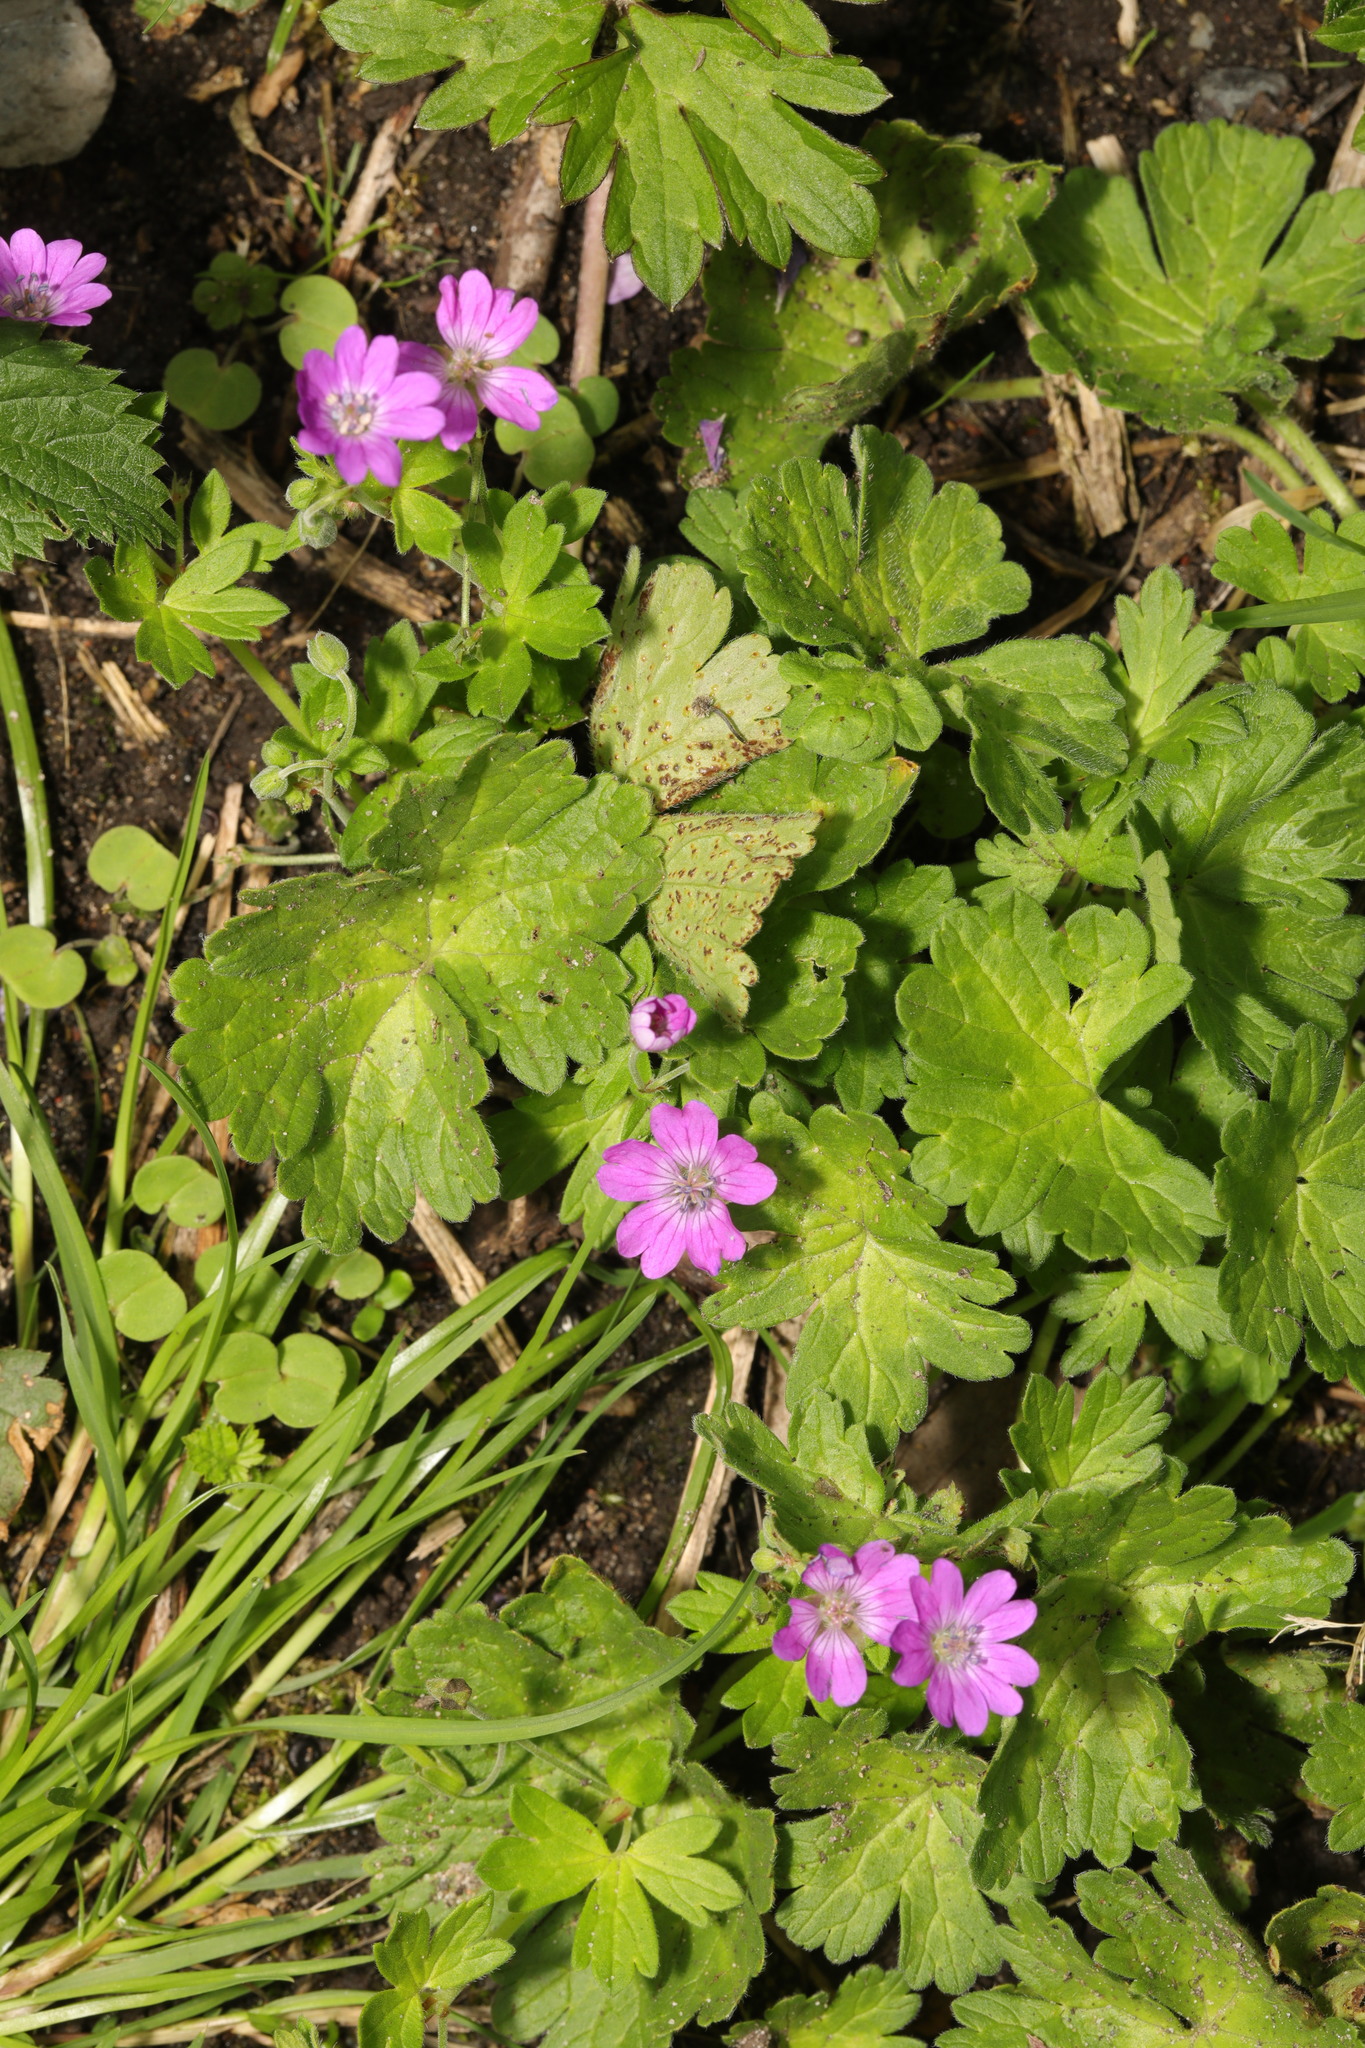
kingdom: Plantae
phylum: Tracheophyta
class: Magnoliopsida
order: Geraniales
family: Geraniaceae
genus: Geranium
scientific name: Geranium pyrenaicum
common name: Hedgerow crane's-bill
